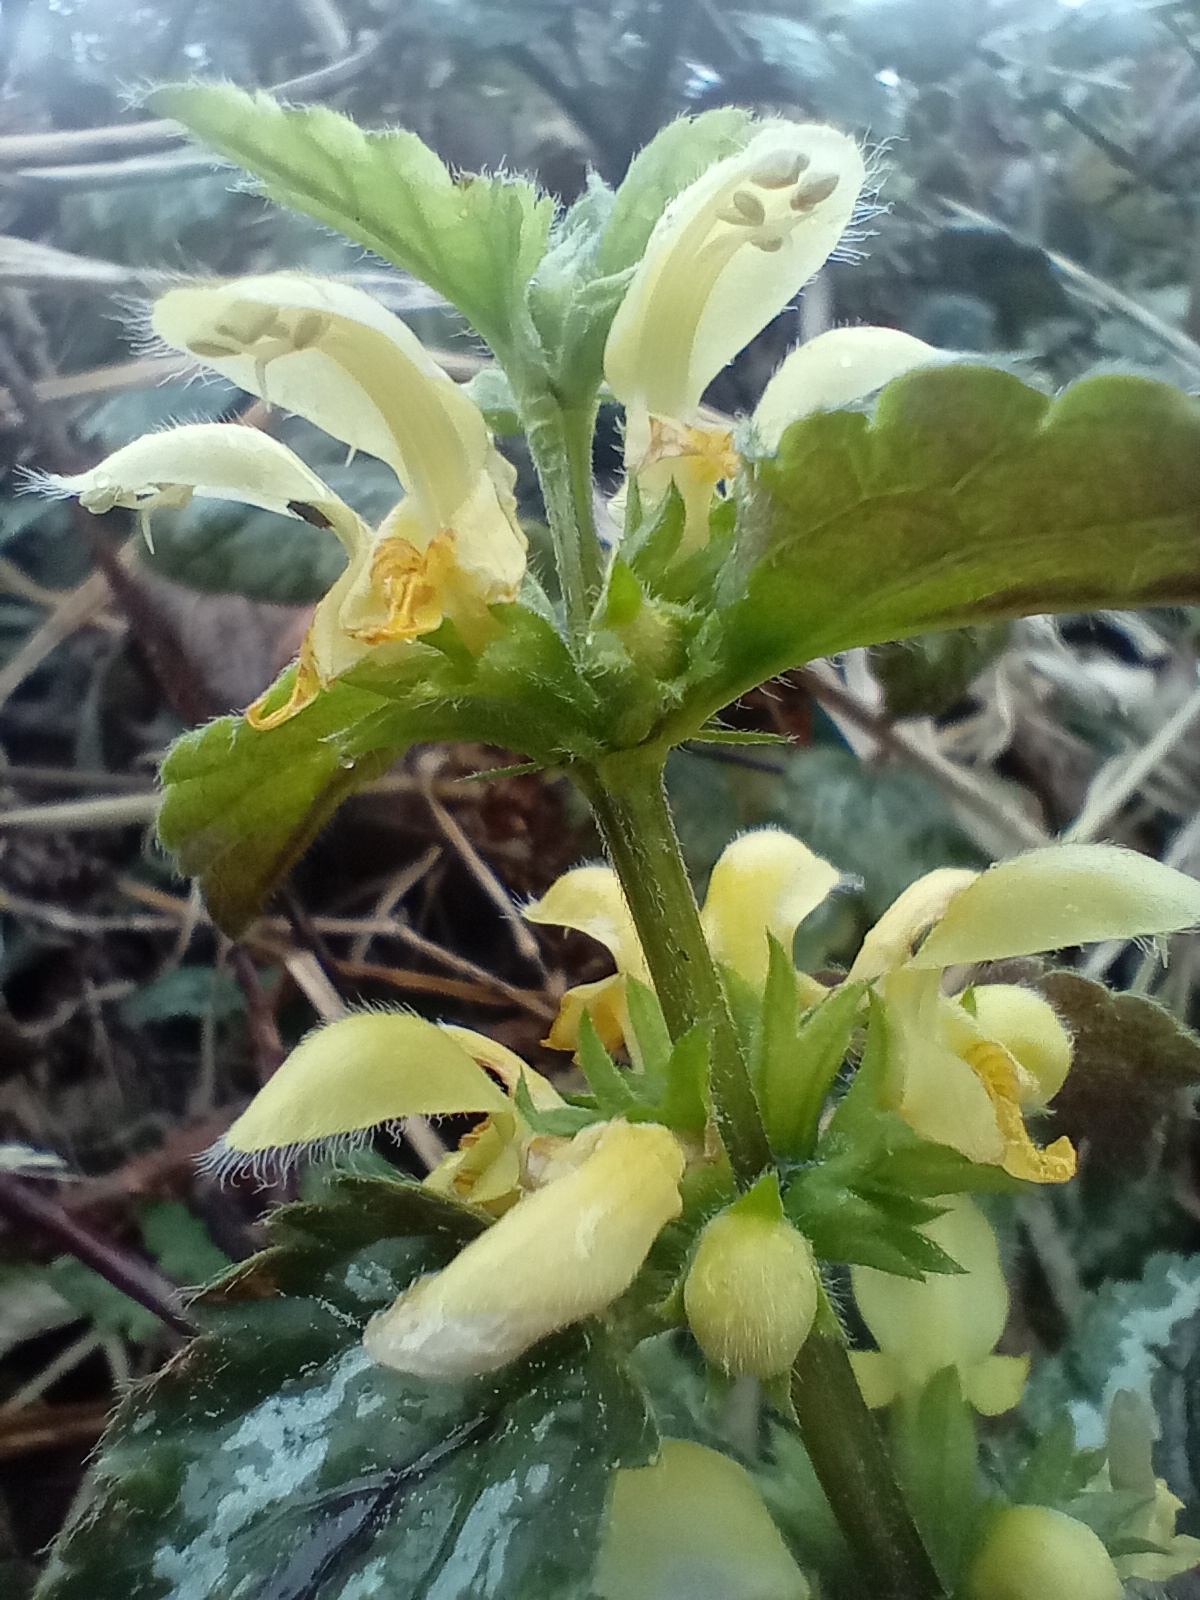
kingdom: Plantae
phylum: Tracheophyta
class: Magnoliopsida
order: Lamiales
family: Lamiaceae
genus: Lamium
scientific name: Lamium galeobdolon
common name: Yellow archangel
